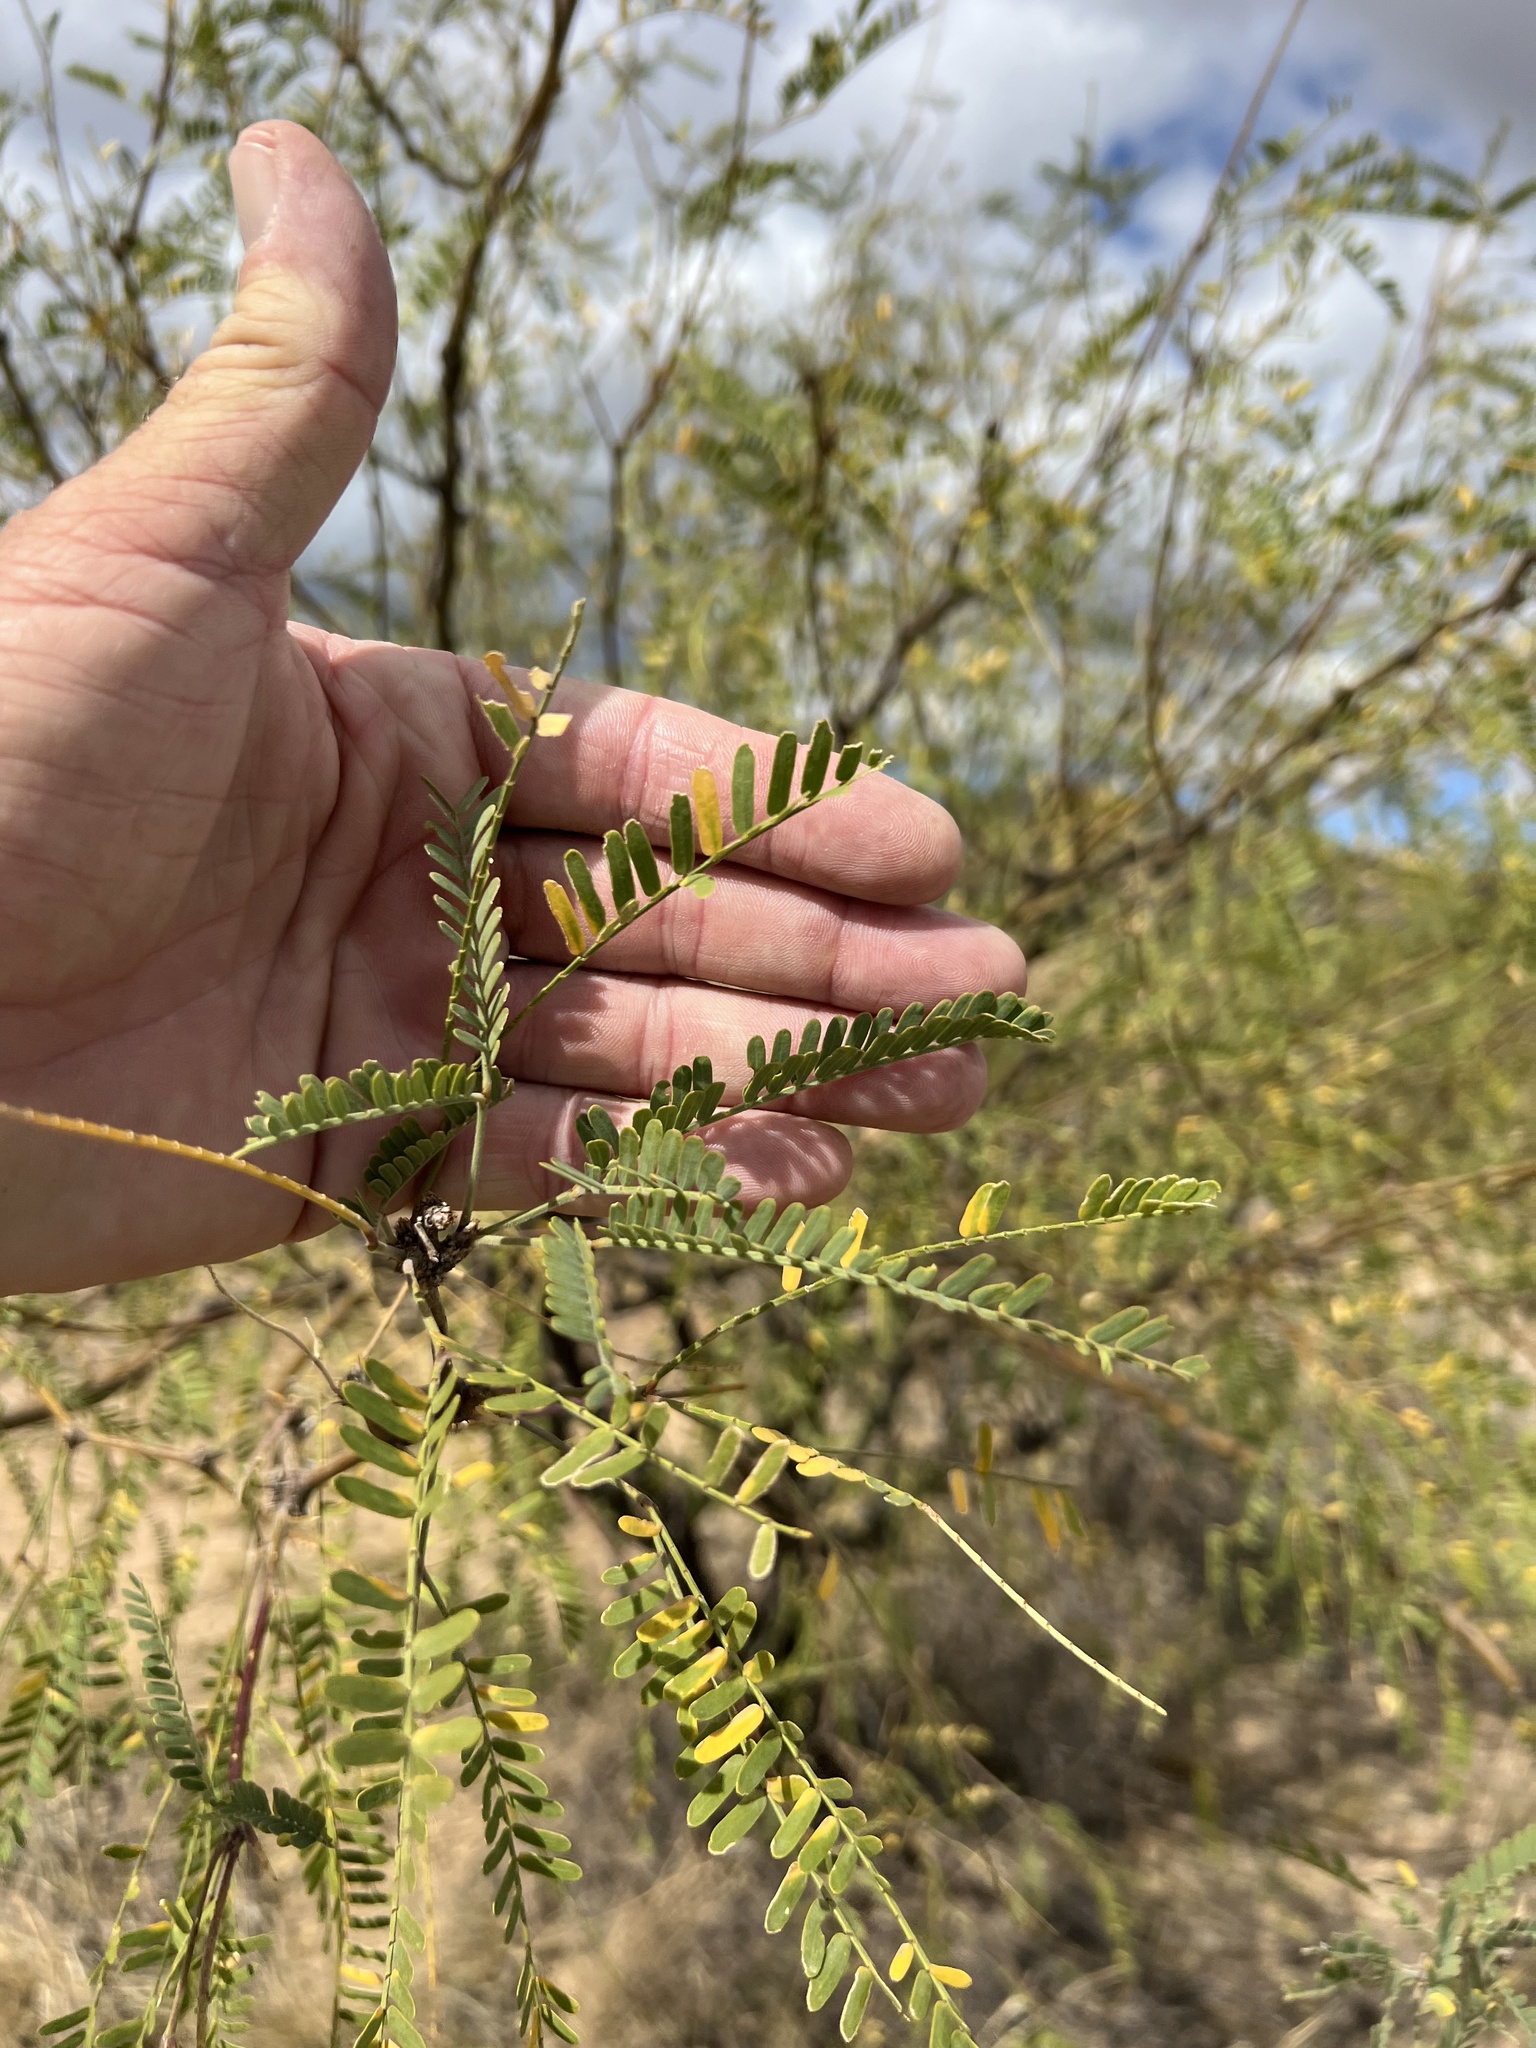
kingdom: Plantae
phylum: Tracheophyta
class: Magnoliopsida
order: Fabales
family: Fabaceae
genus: Prosopis
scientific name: Prosopis velutina
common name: Velvet mesquite
